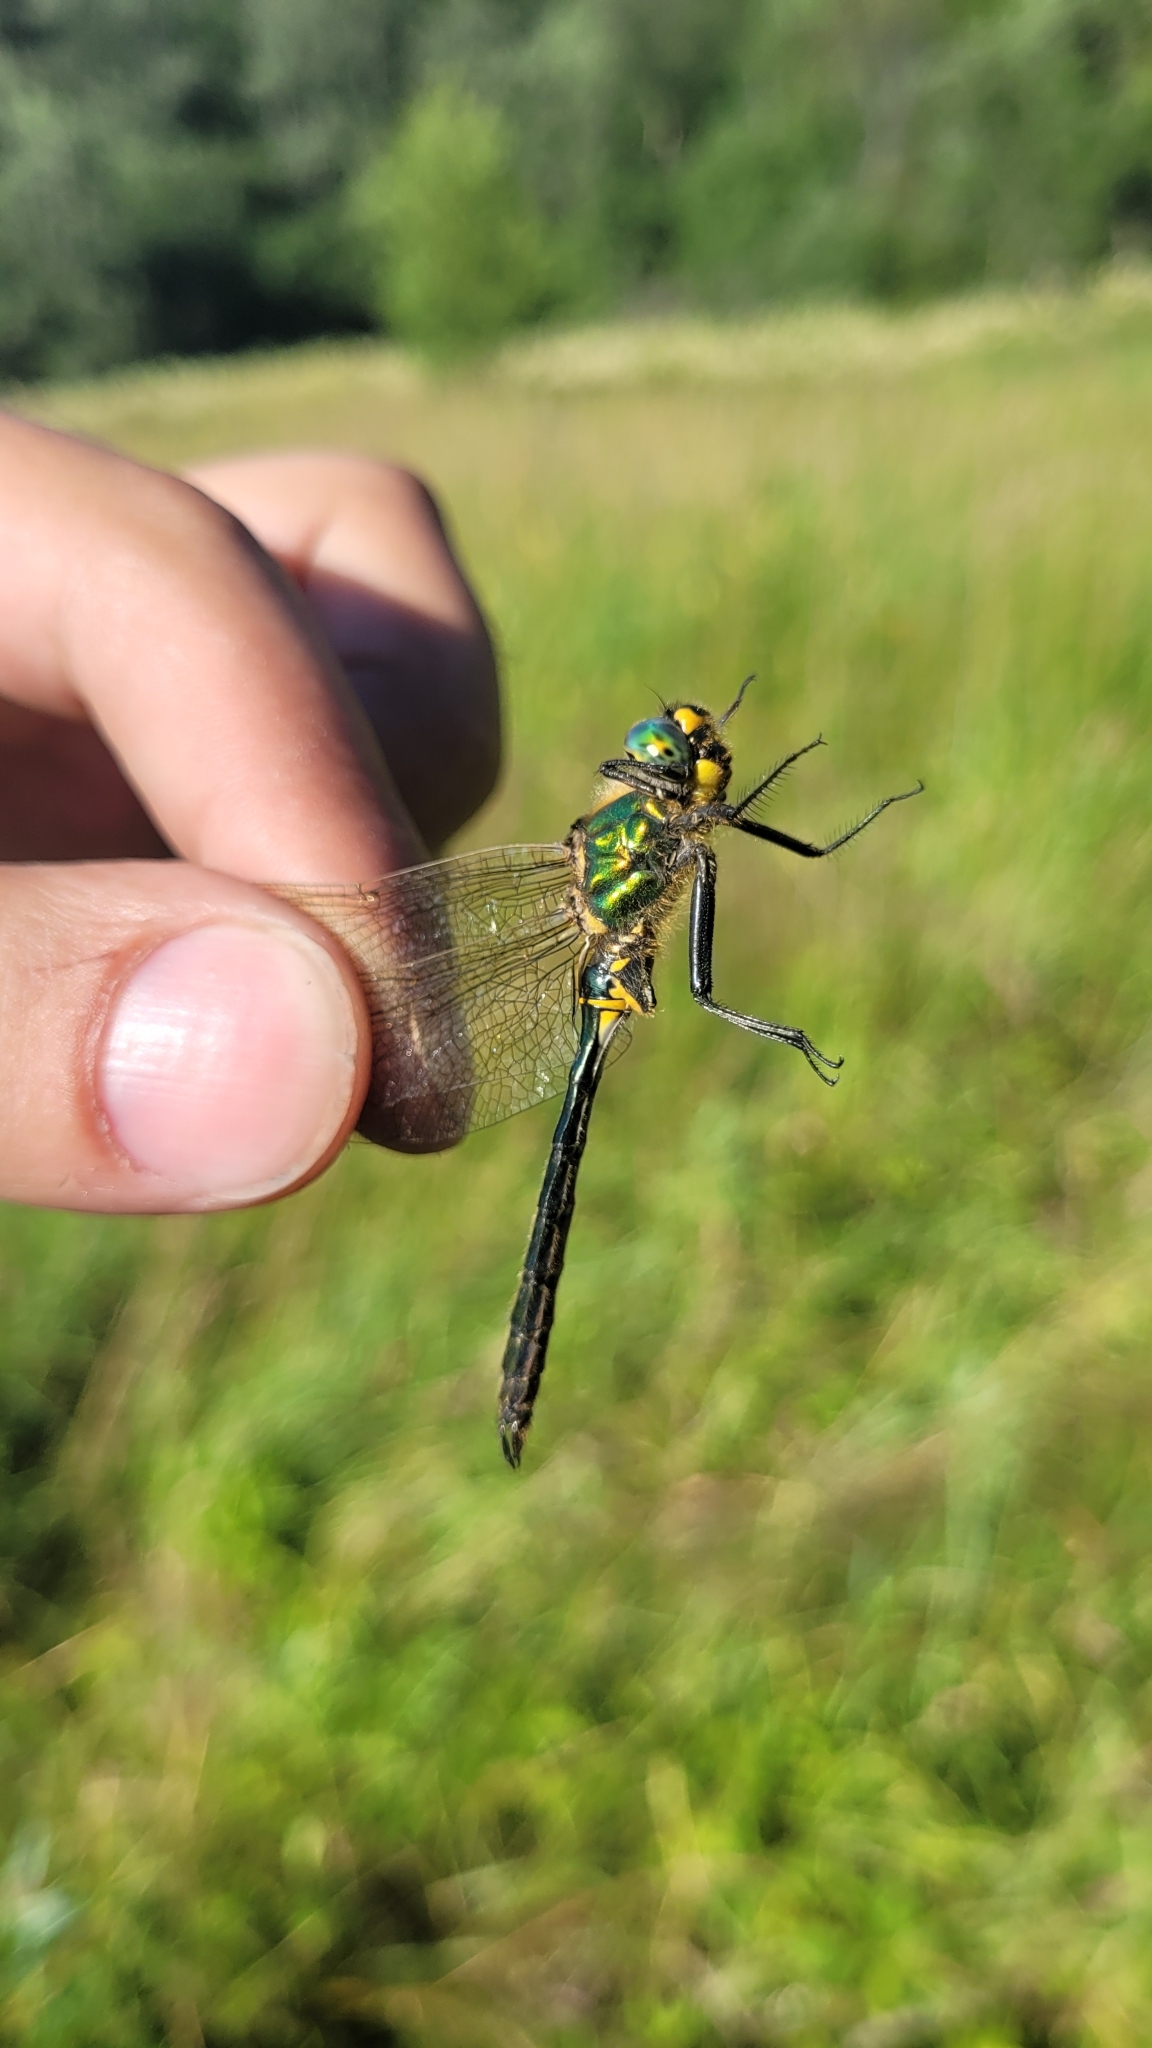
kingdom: Animalia
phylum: Arthropoda
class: Insecta
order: Odonata
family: Corduliidae
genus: Somatochlora
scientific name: Somatochlora metallica
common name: Brilliant emerald
